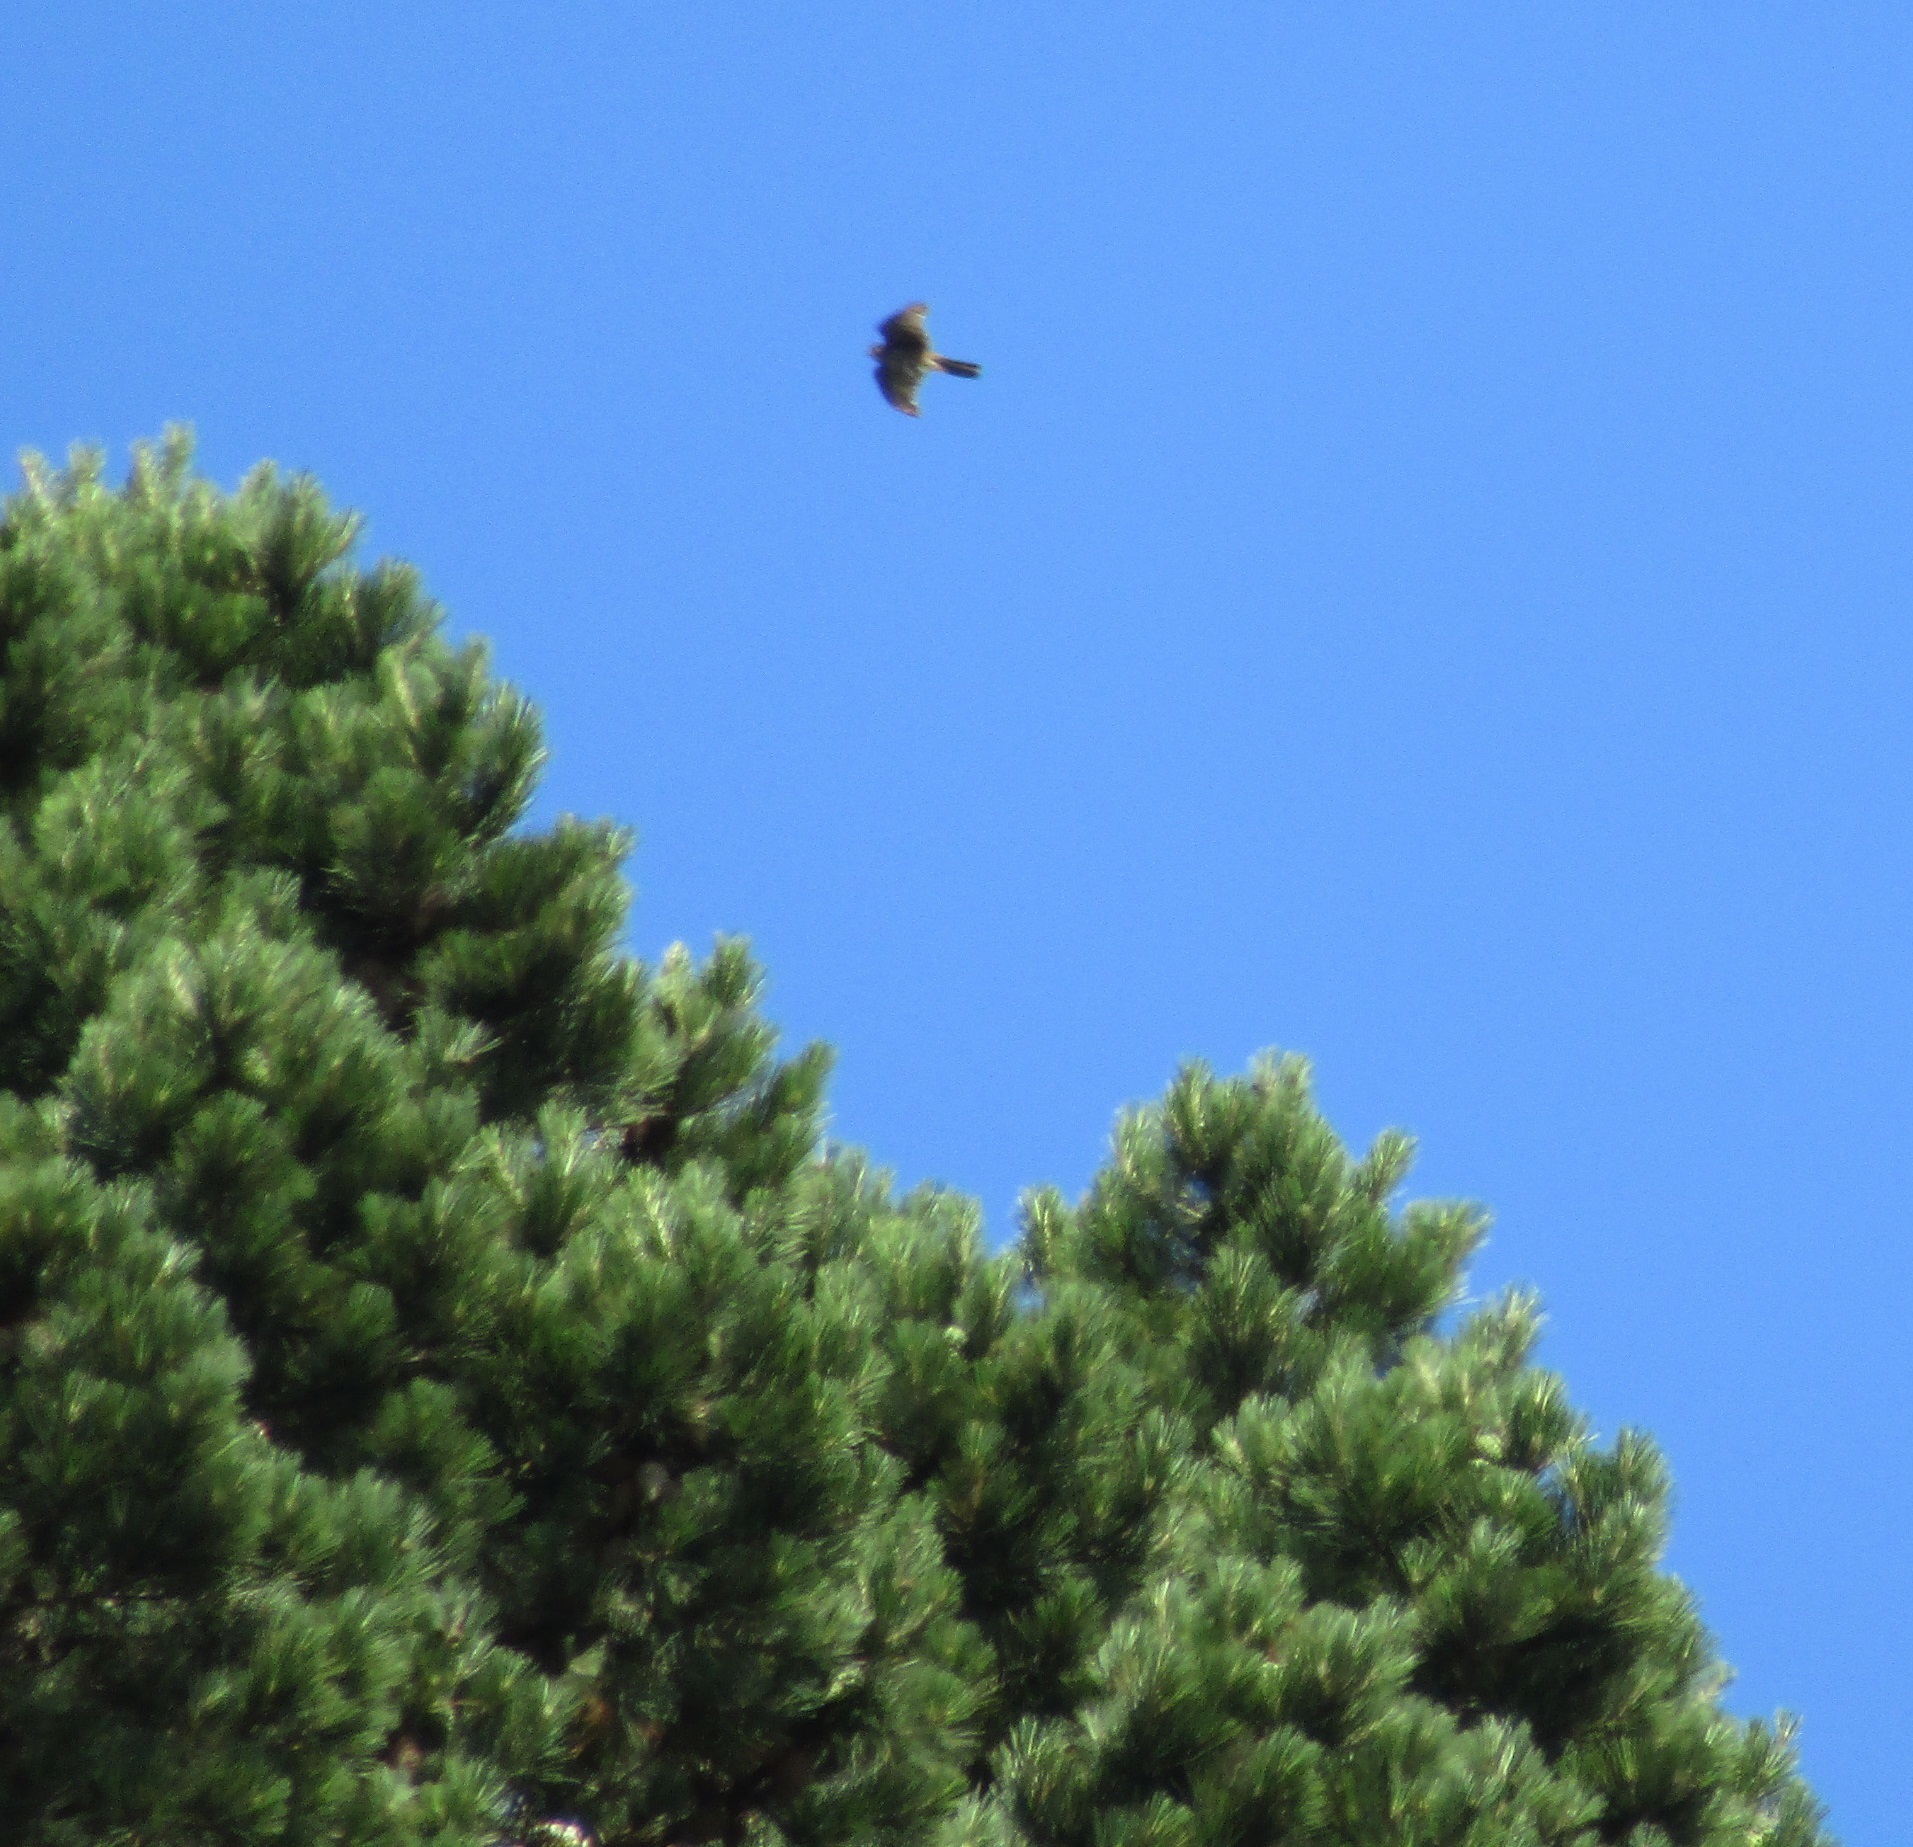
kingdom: Animalia
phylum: Chordata
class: Aves
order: Falconiformes
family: Falconidae
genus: Falco
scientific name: Falco novaeseelandiae
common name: New zealand falcon
